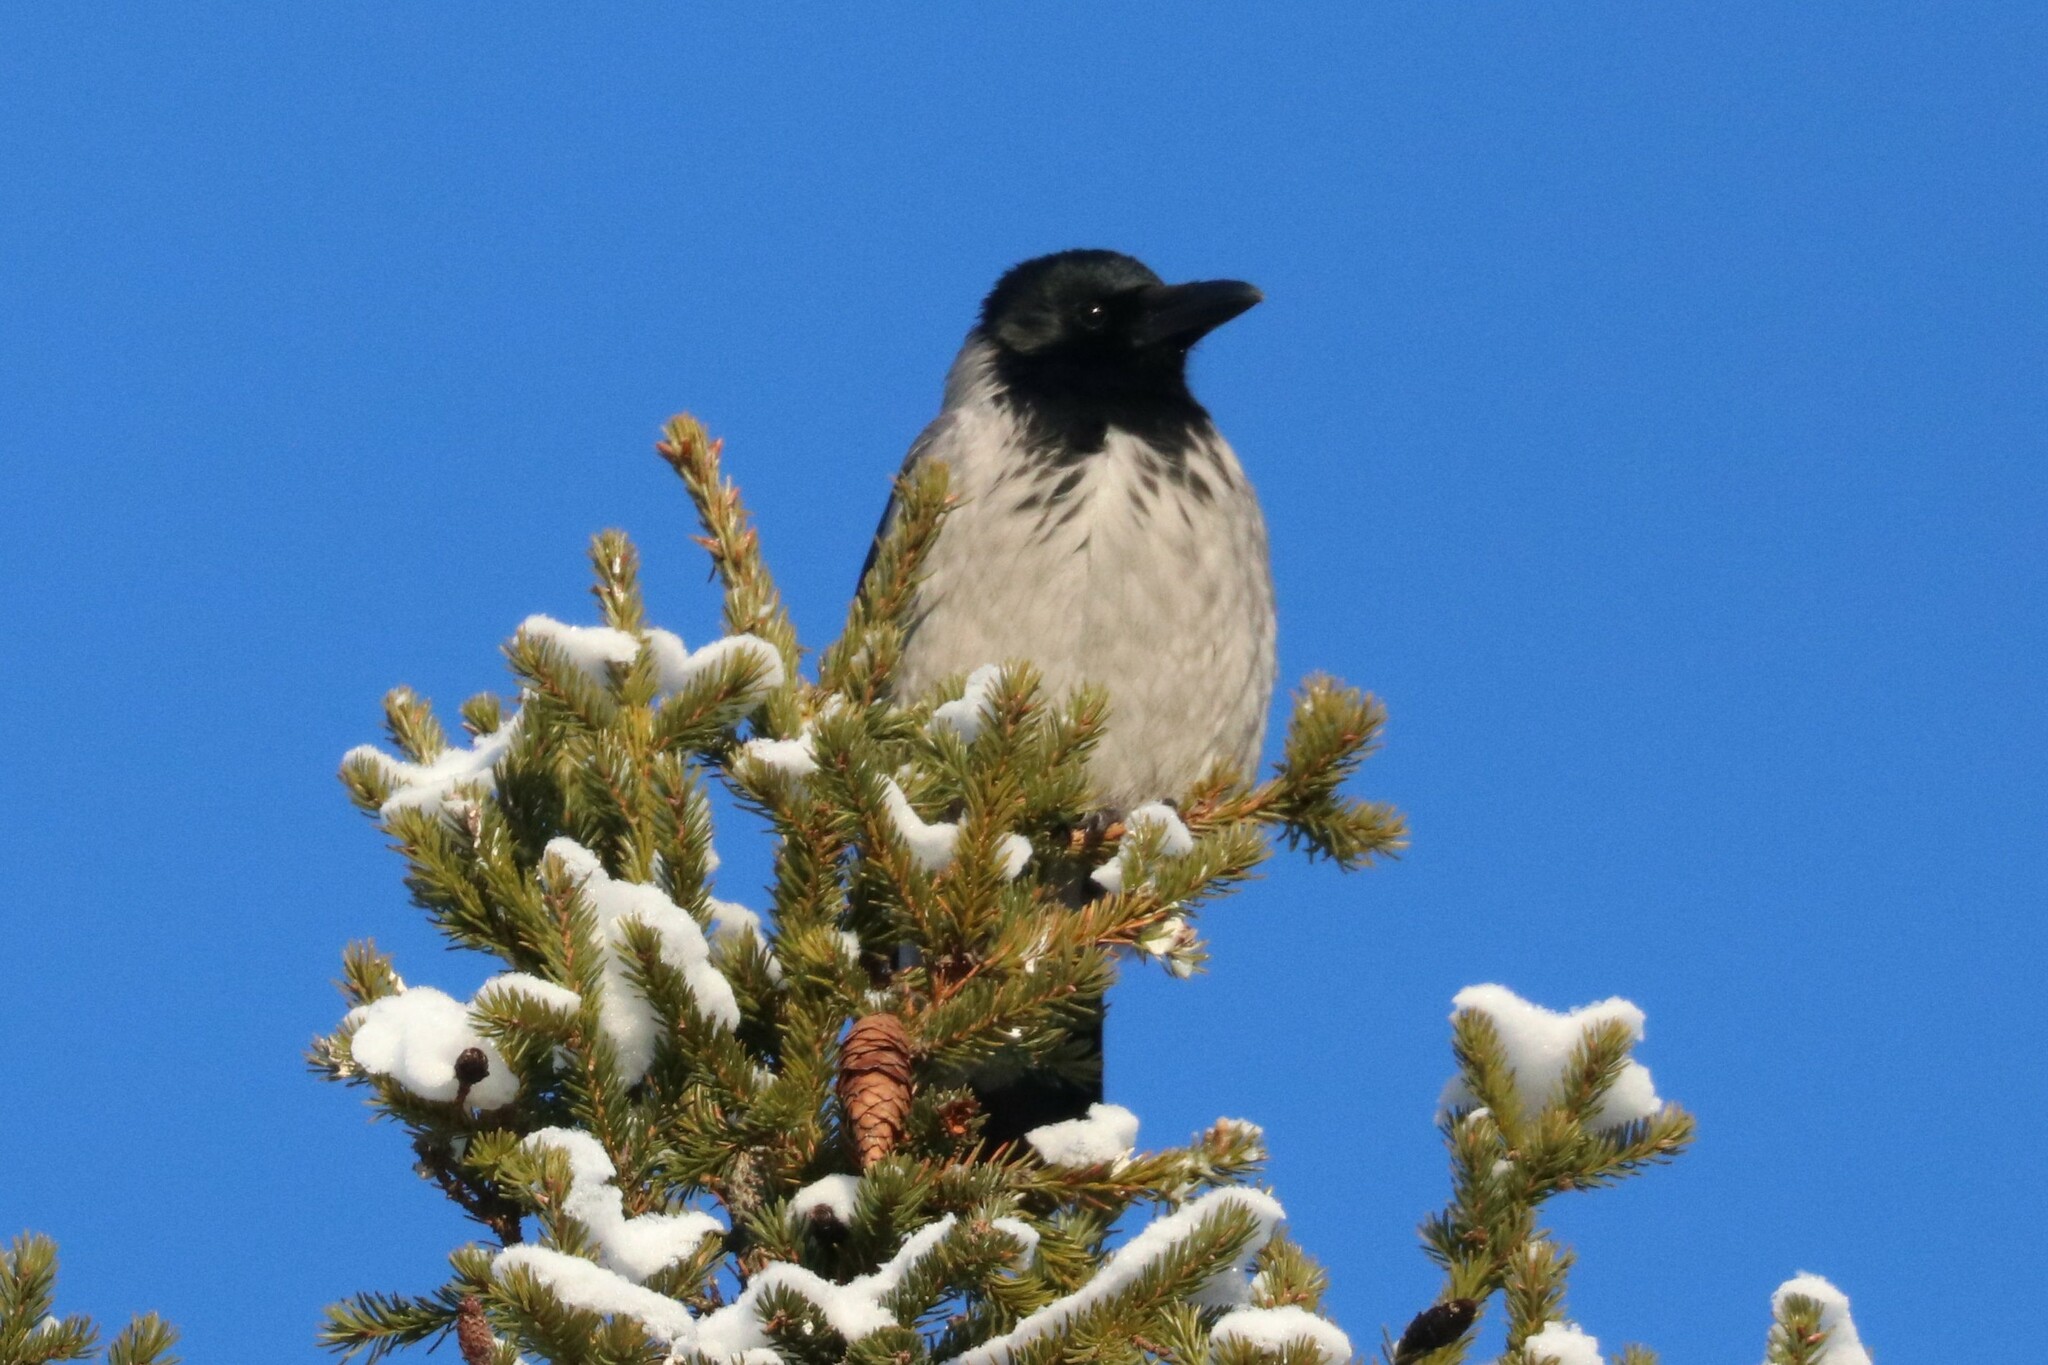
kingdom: Animalia
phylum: Chordata
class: Aves
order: Passeriformes
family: Corvidae
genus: Corvus
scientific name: Corvus cornix
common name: Hooded crow
